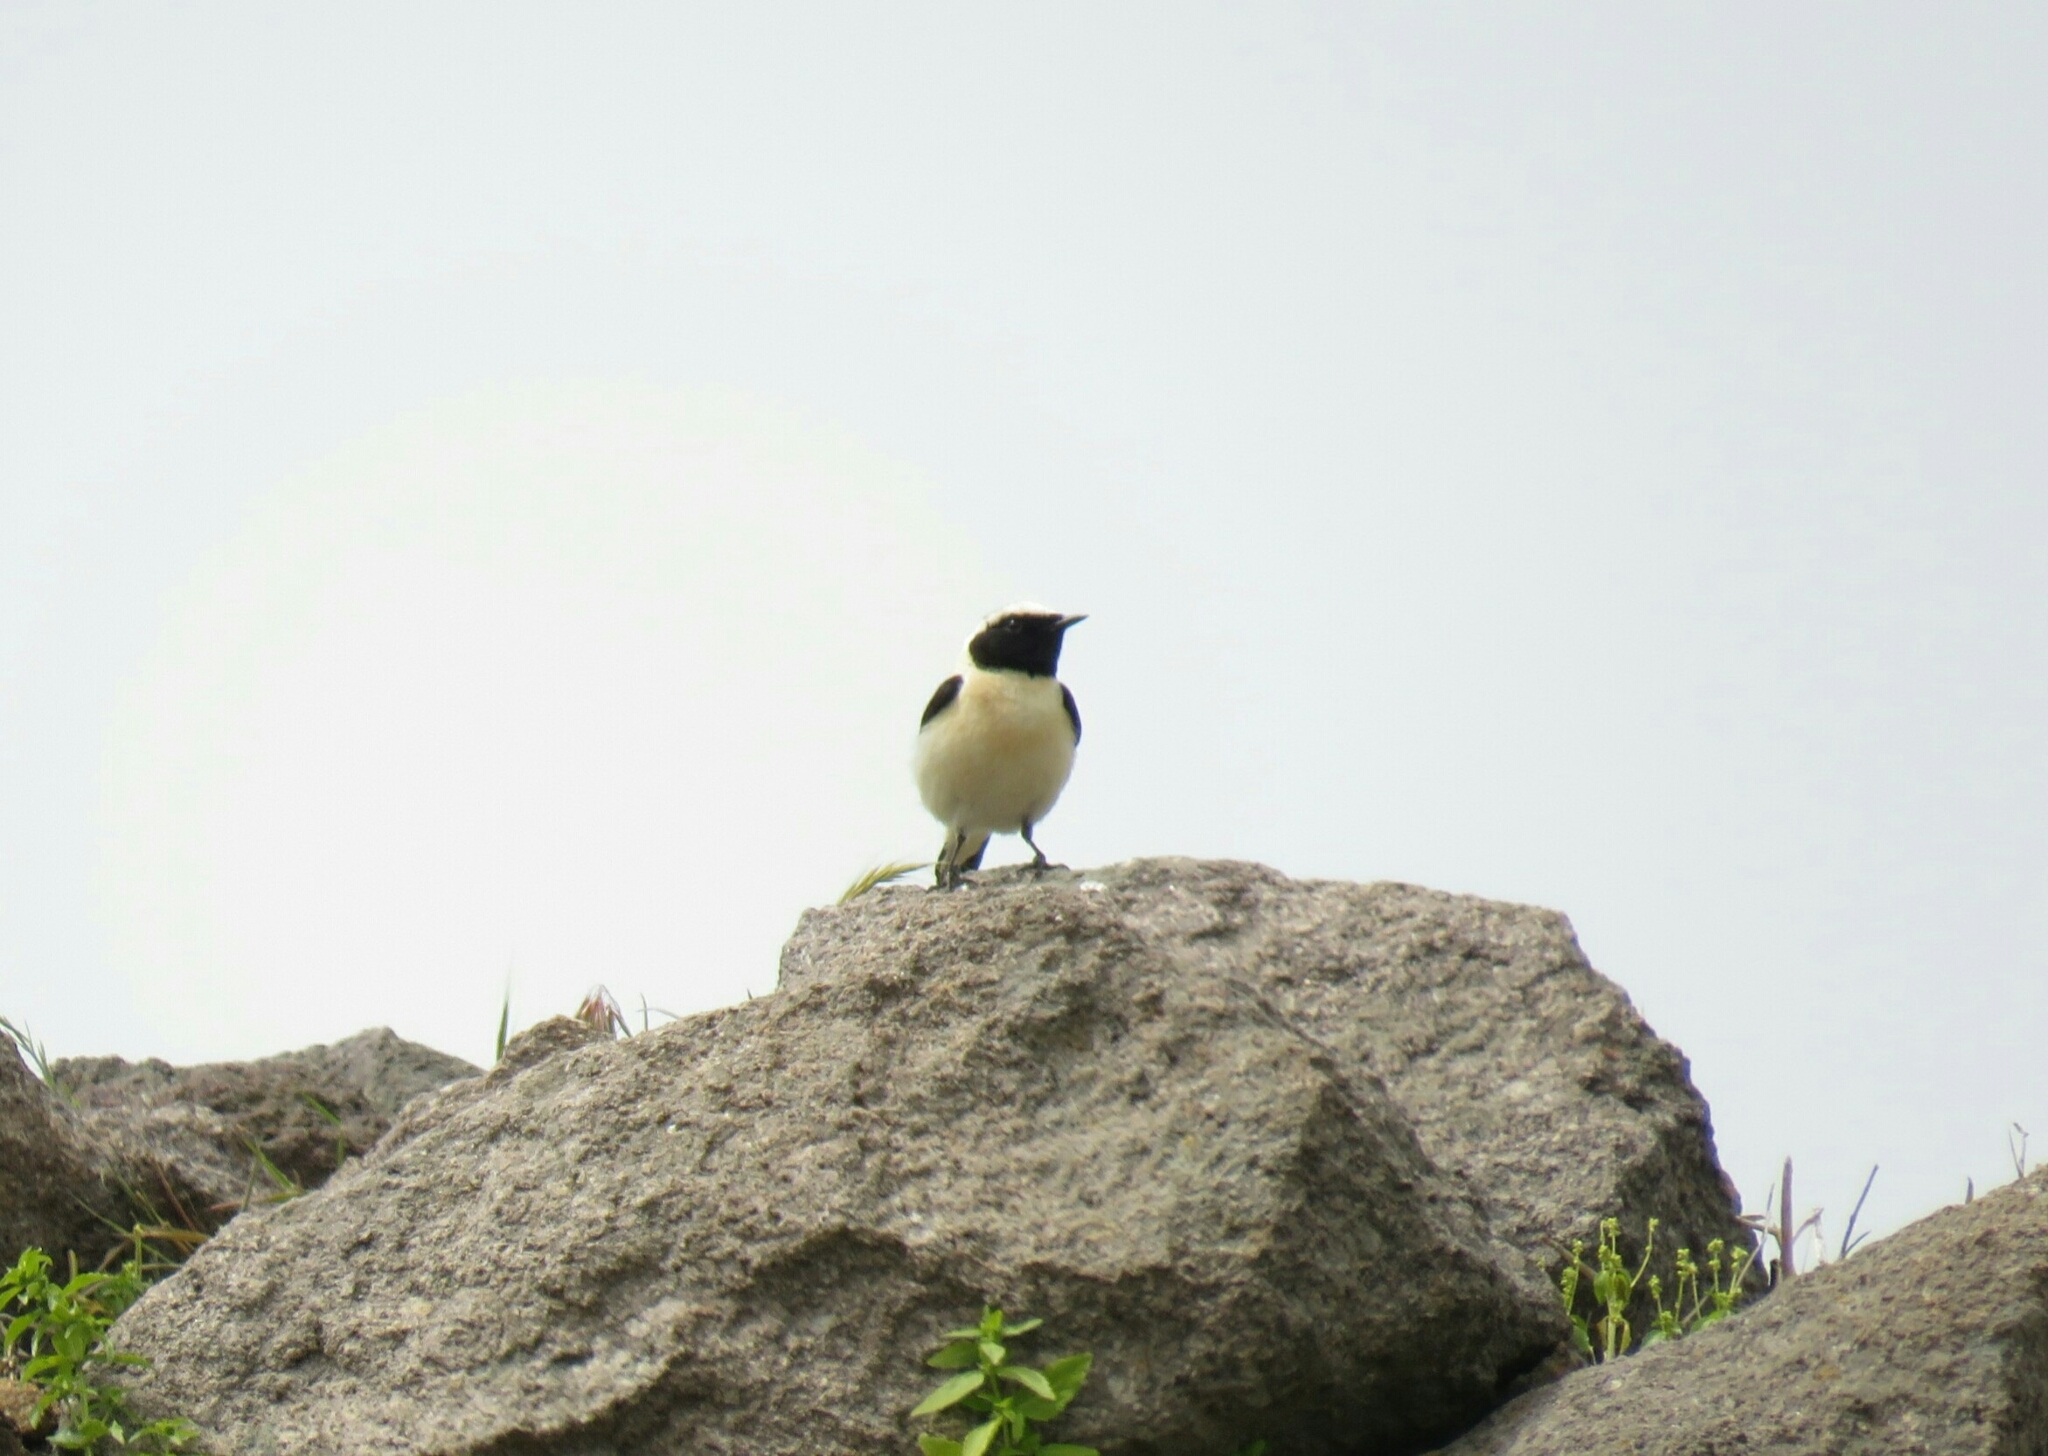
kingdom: Animalia
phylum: Chordata
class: Aves
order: Passeriformes
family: Muscicapidae
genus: Oenanthe
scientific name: Oenanthe hispanica
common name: Black-eared wheatear
